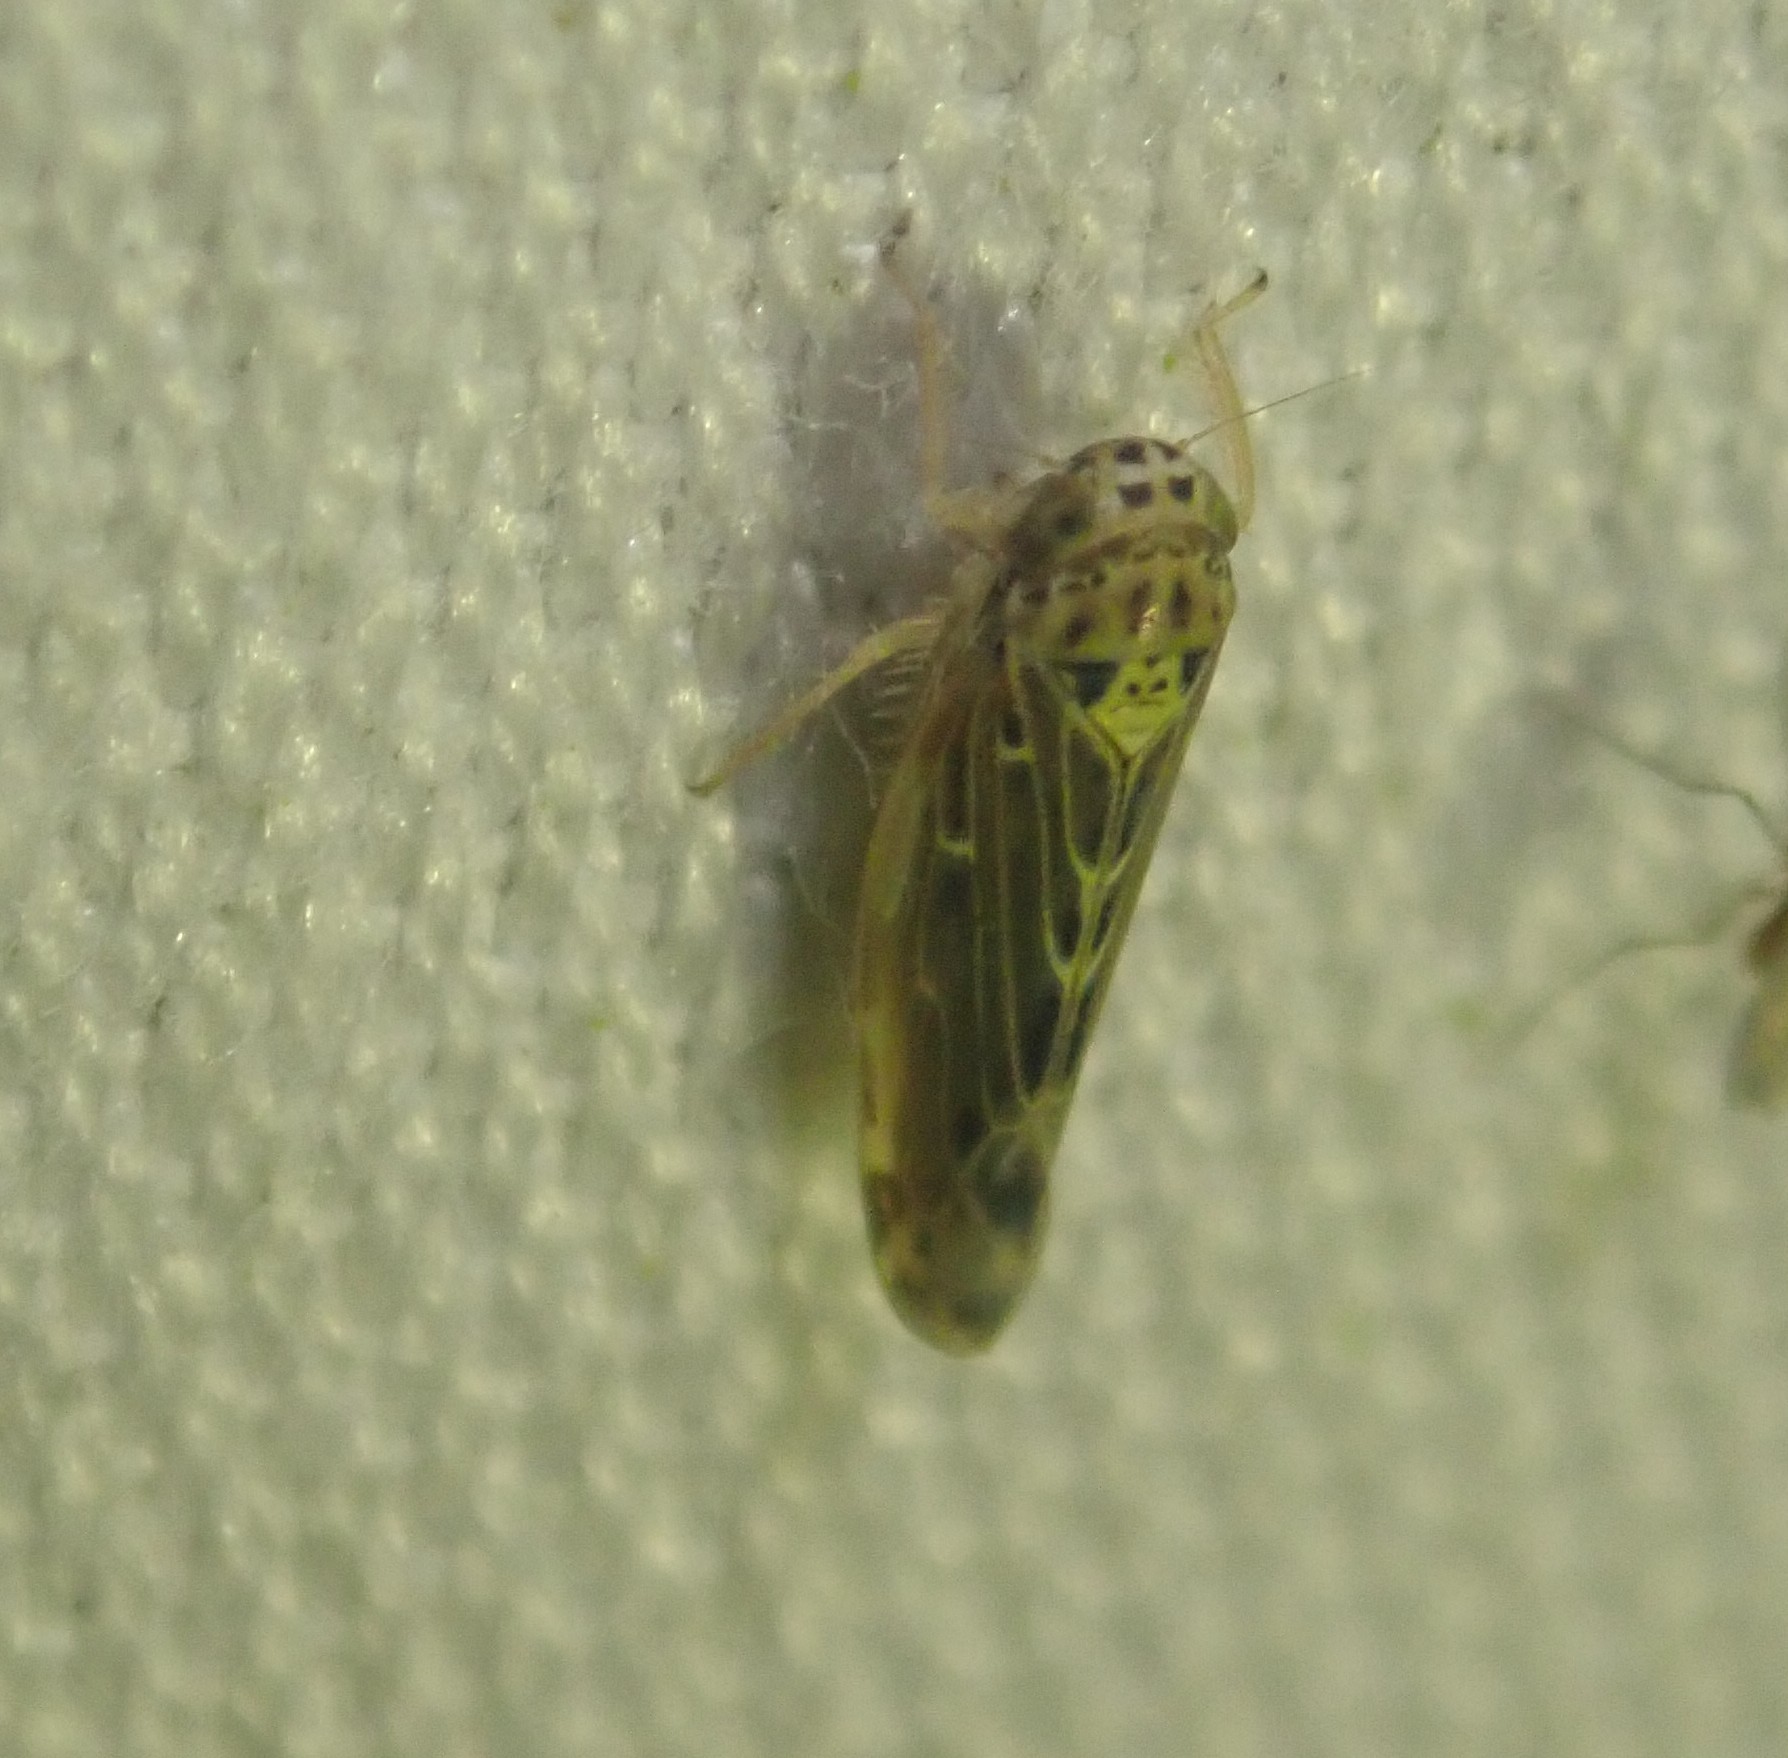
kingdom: Animalia
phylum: Arthropoda
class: Insecta
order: Hemiptera
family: Cicadellidae
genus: Lamprotettix
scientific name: Lamprotettix nitidulus
